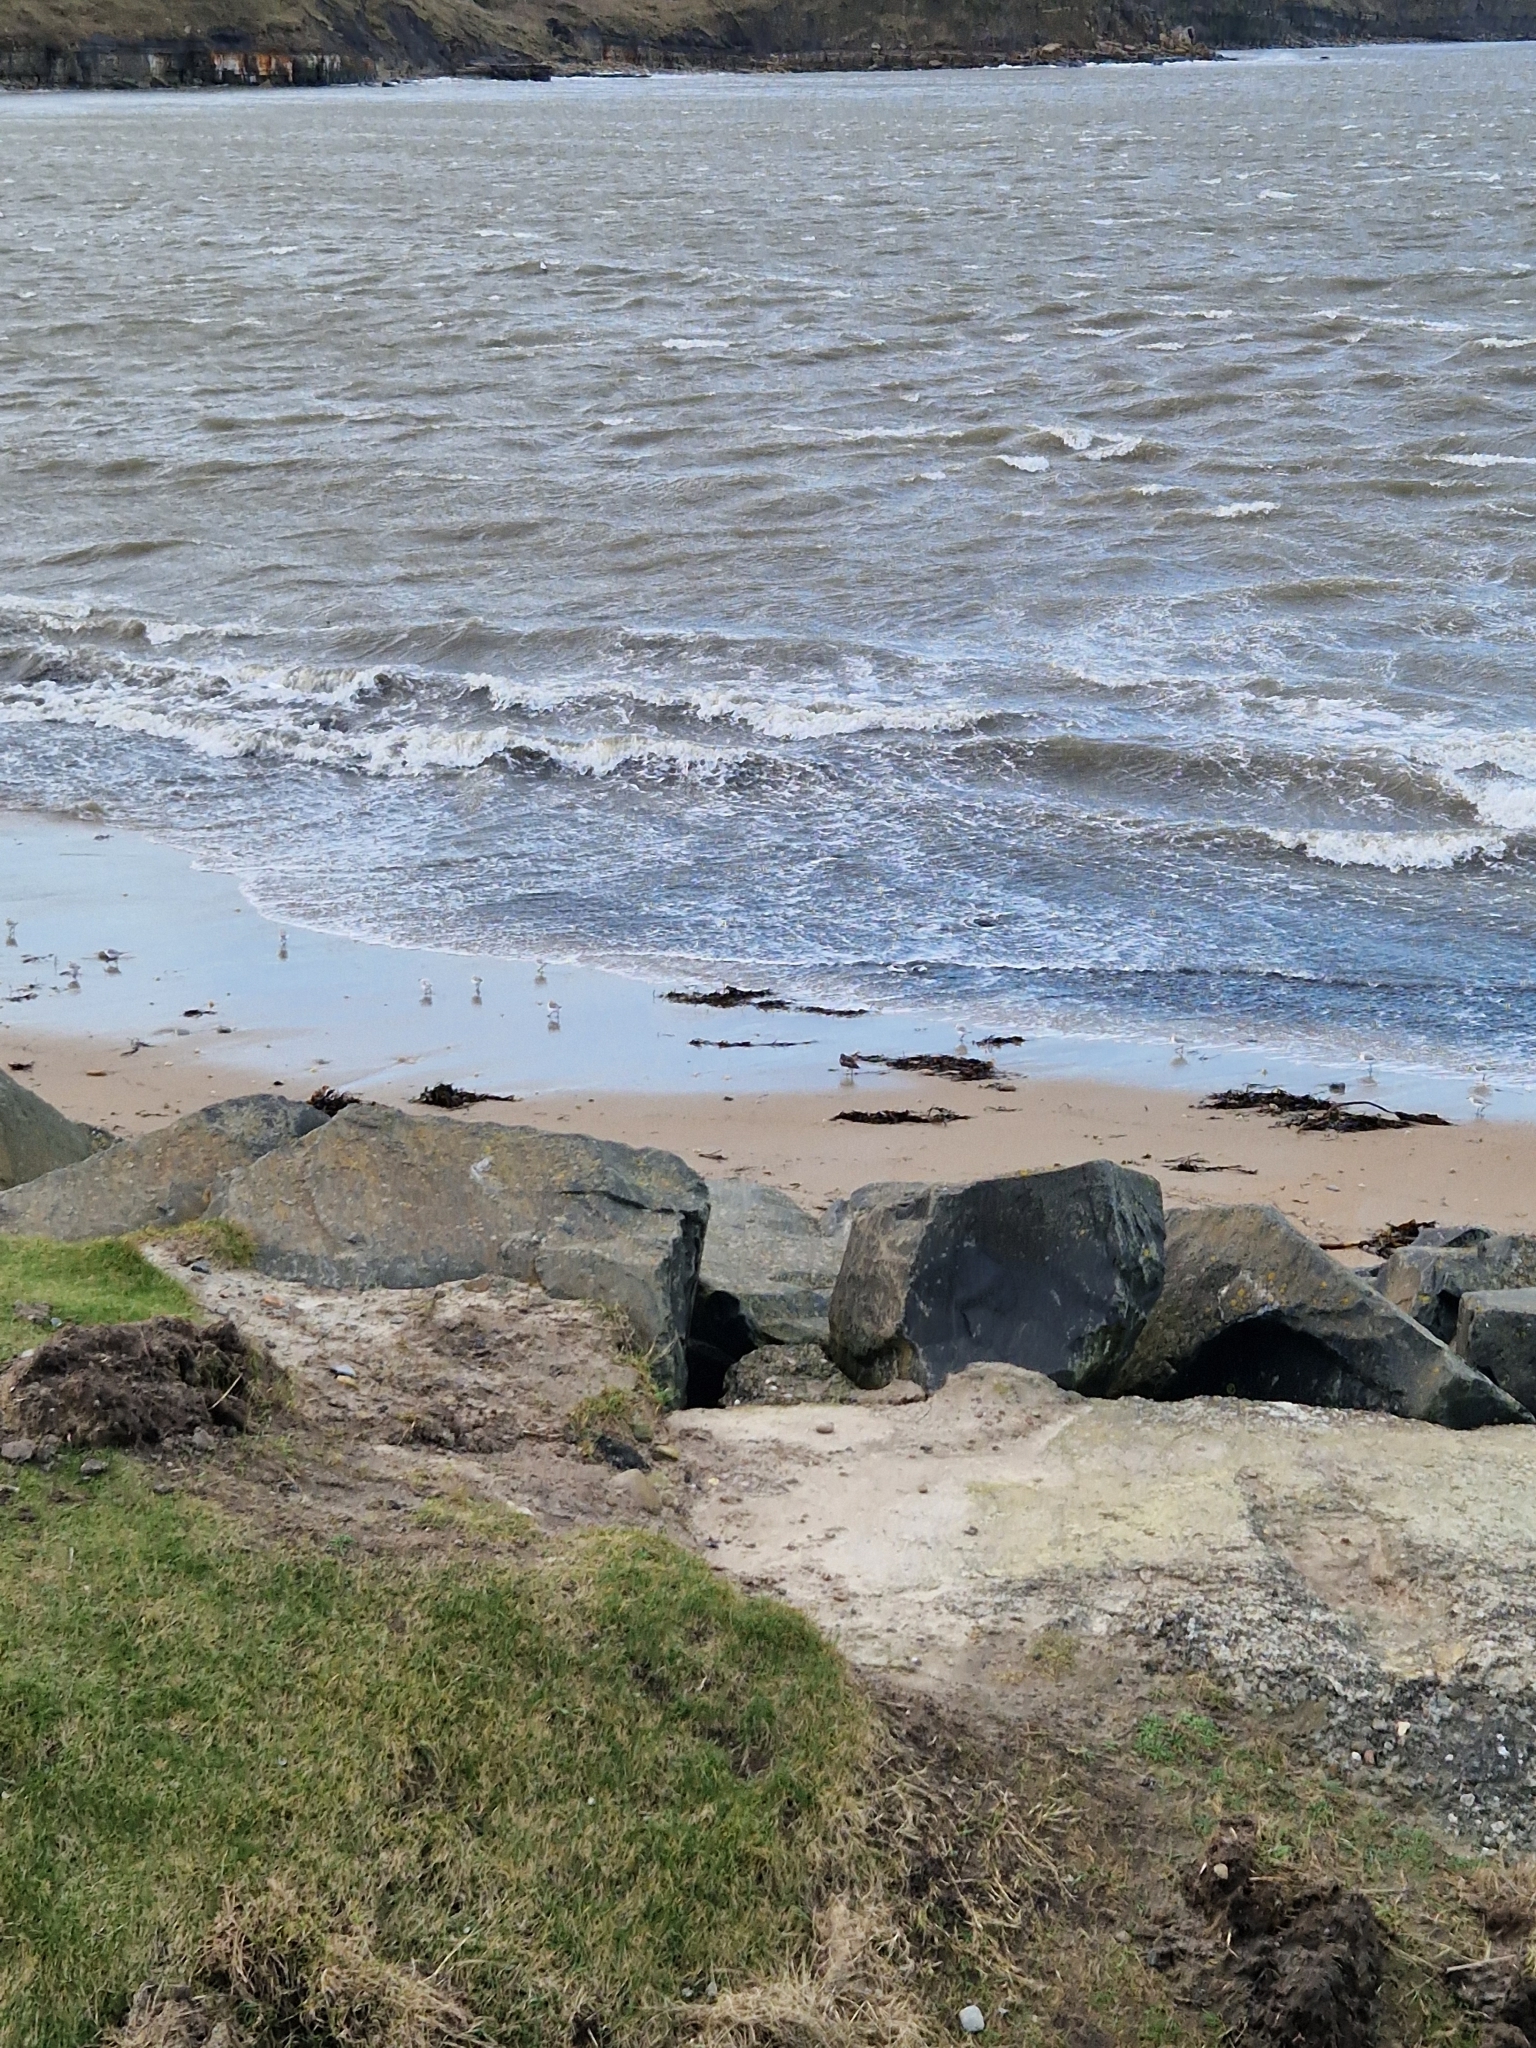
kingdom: Animalia
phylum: Chordata
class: Aves
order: Charadriiformes
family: Scolopacidae
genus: Arenaria
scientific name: Arenaria interpres
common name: Ruddy turnstone
